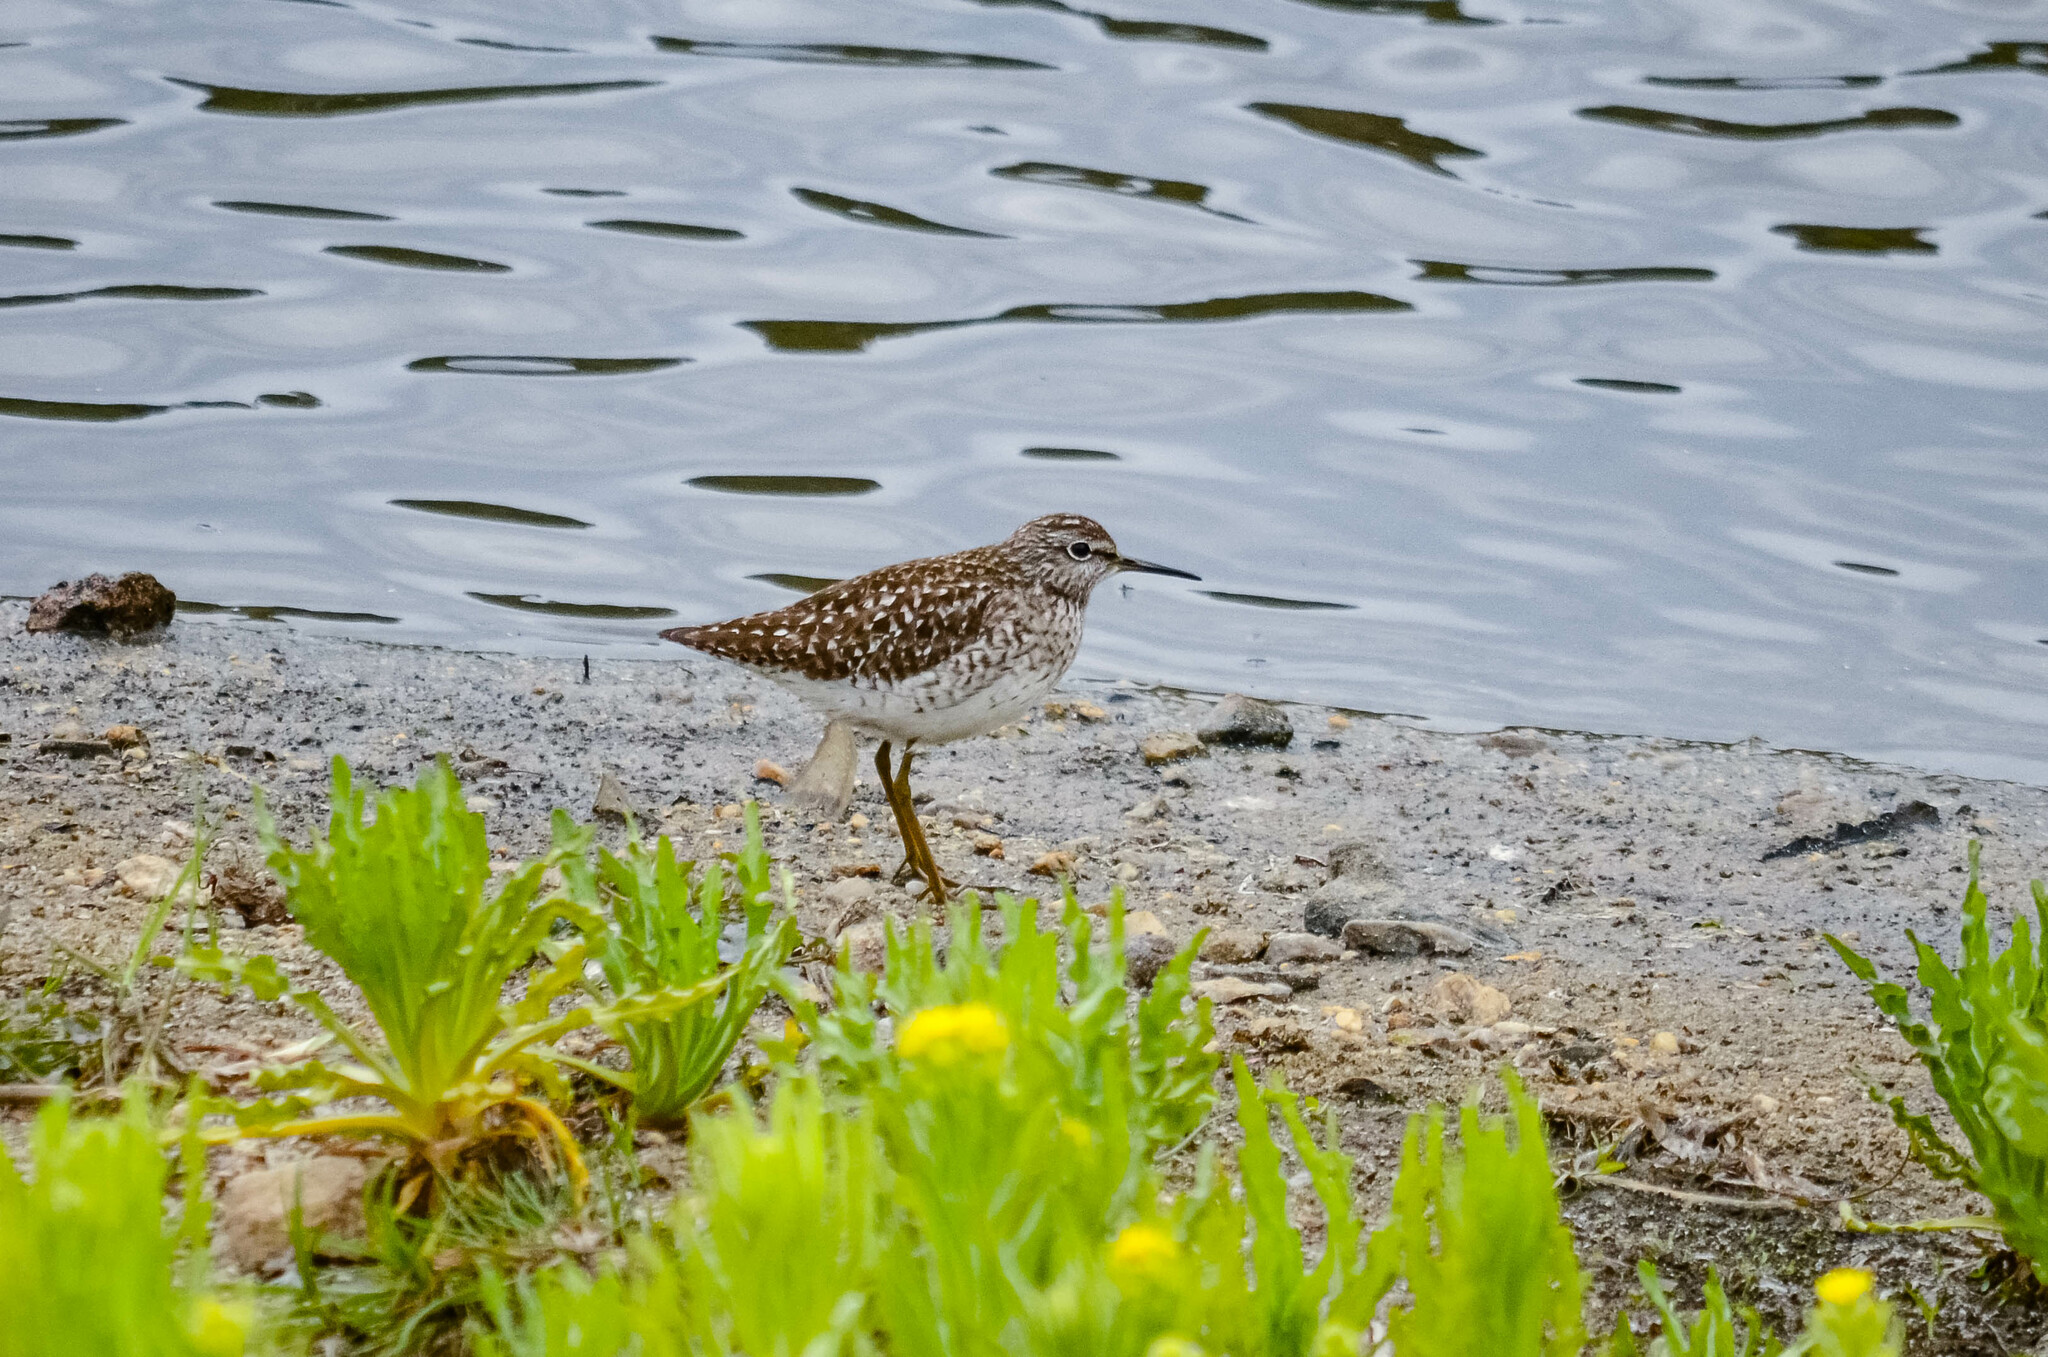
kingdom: Animalia
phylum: Chordata
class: Aves
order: Charadriiformes
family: Scolopacidae
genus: Tringa
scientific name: Tringa glareola
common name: Wood sandpiper
